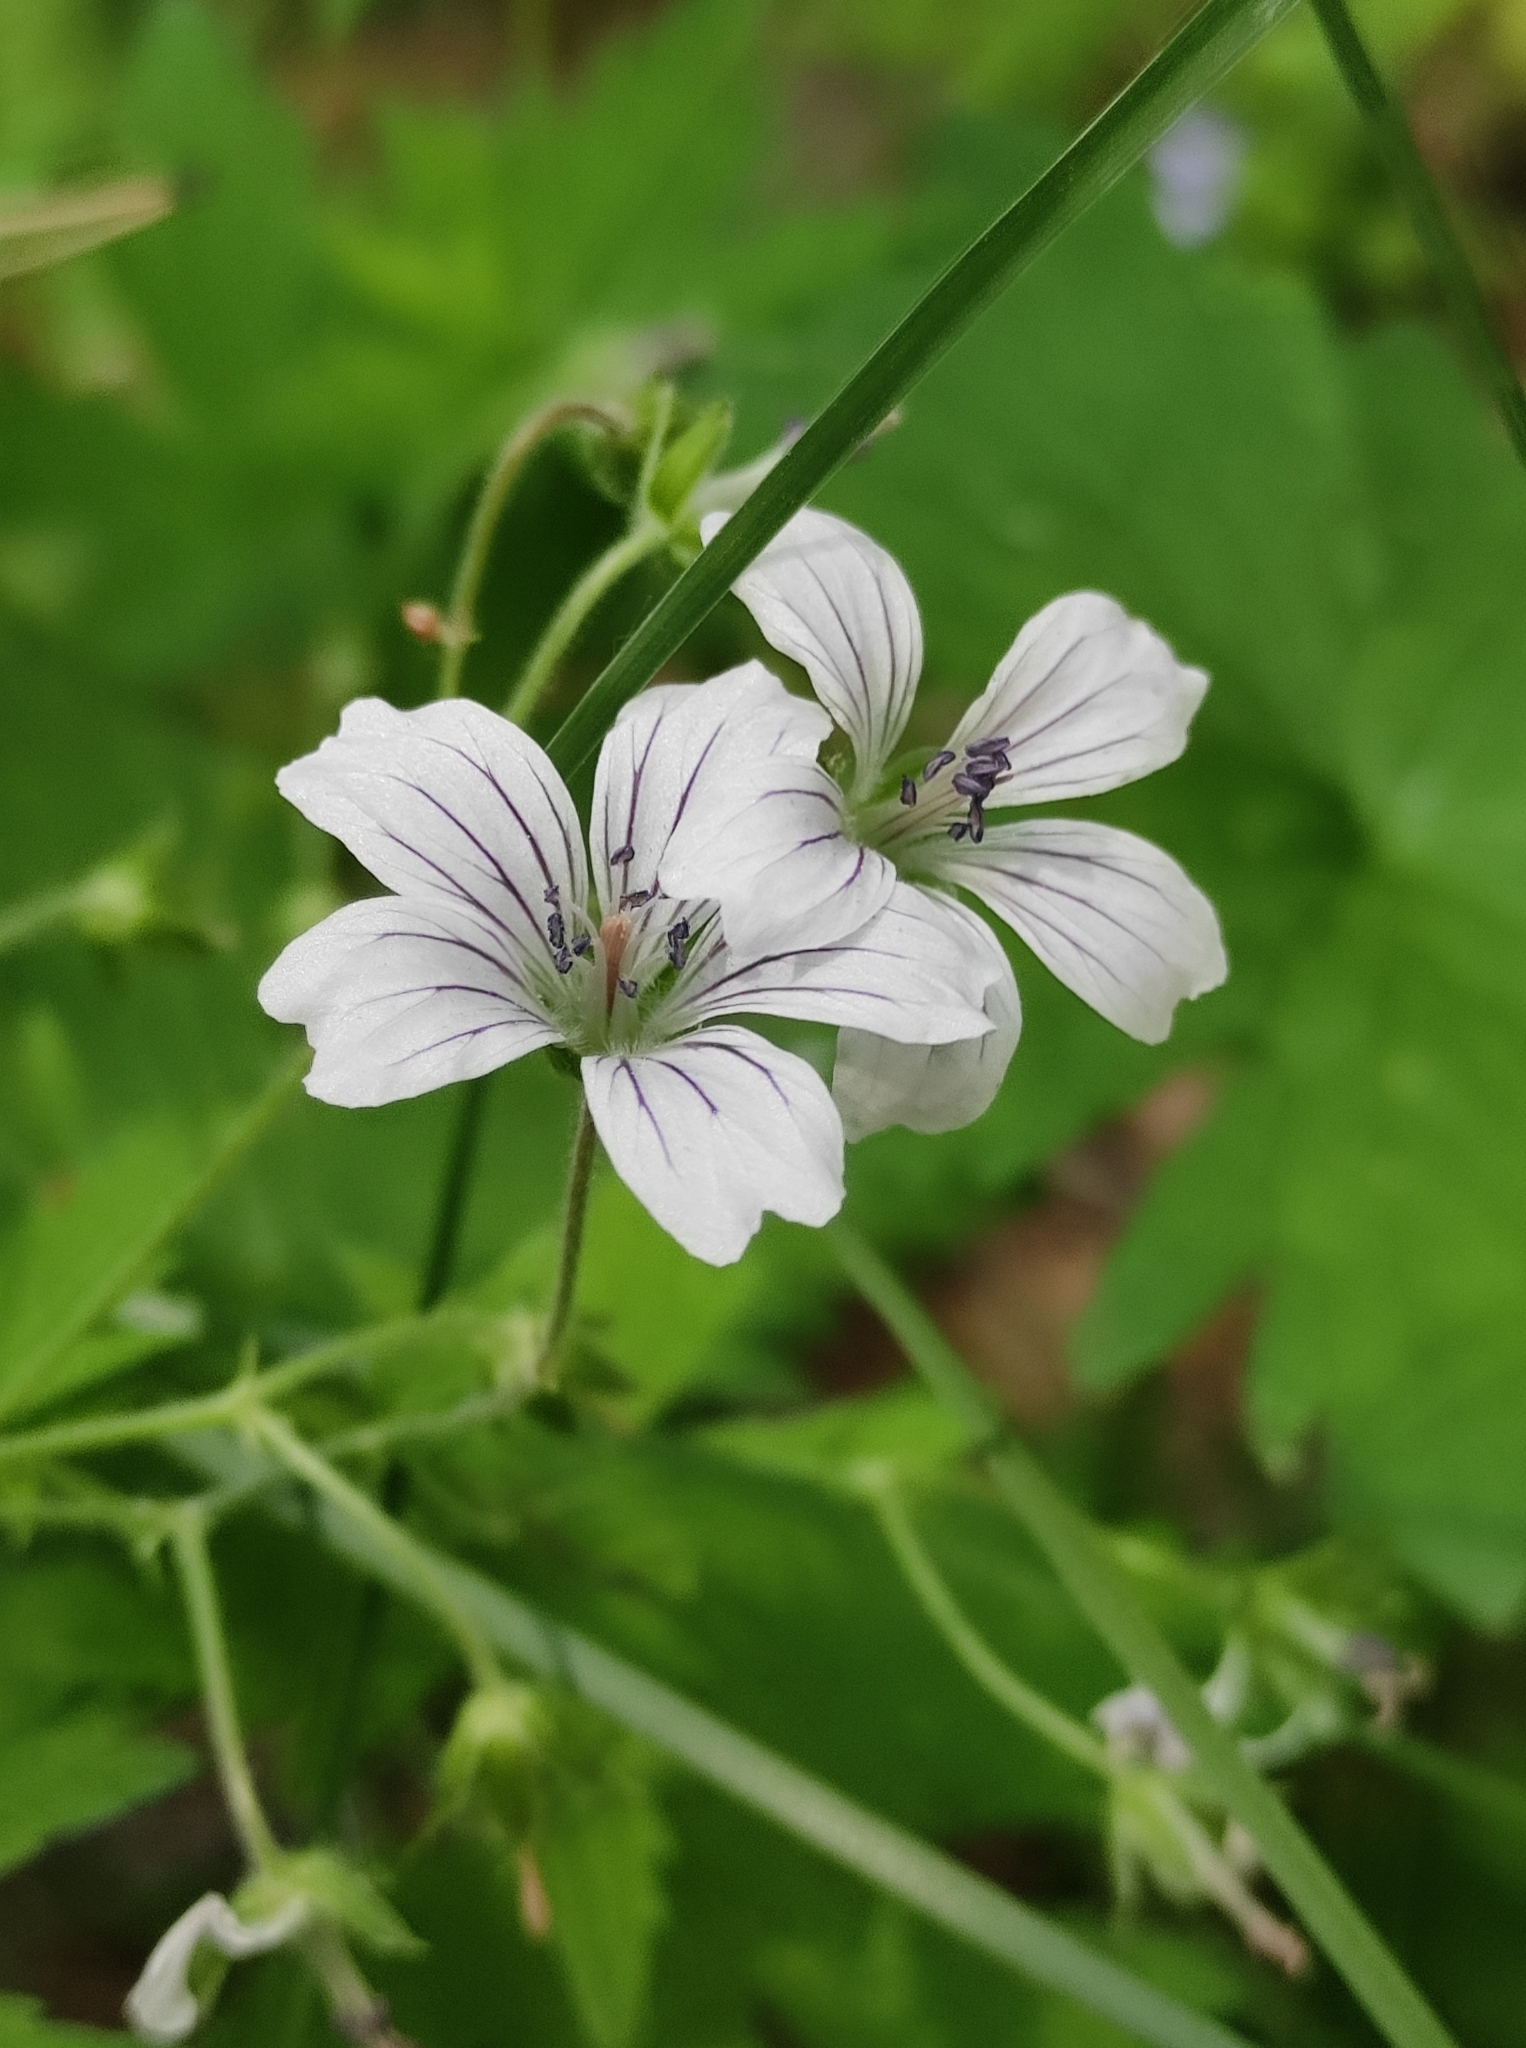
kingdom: Plantae
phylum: Tracheophyta
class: Magnoliopsida
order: Geraniales
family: Geraniaceae
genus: Geranium
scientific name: Geranium sylvaticum
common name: Wood crane's-bill
